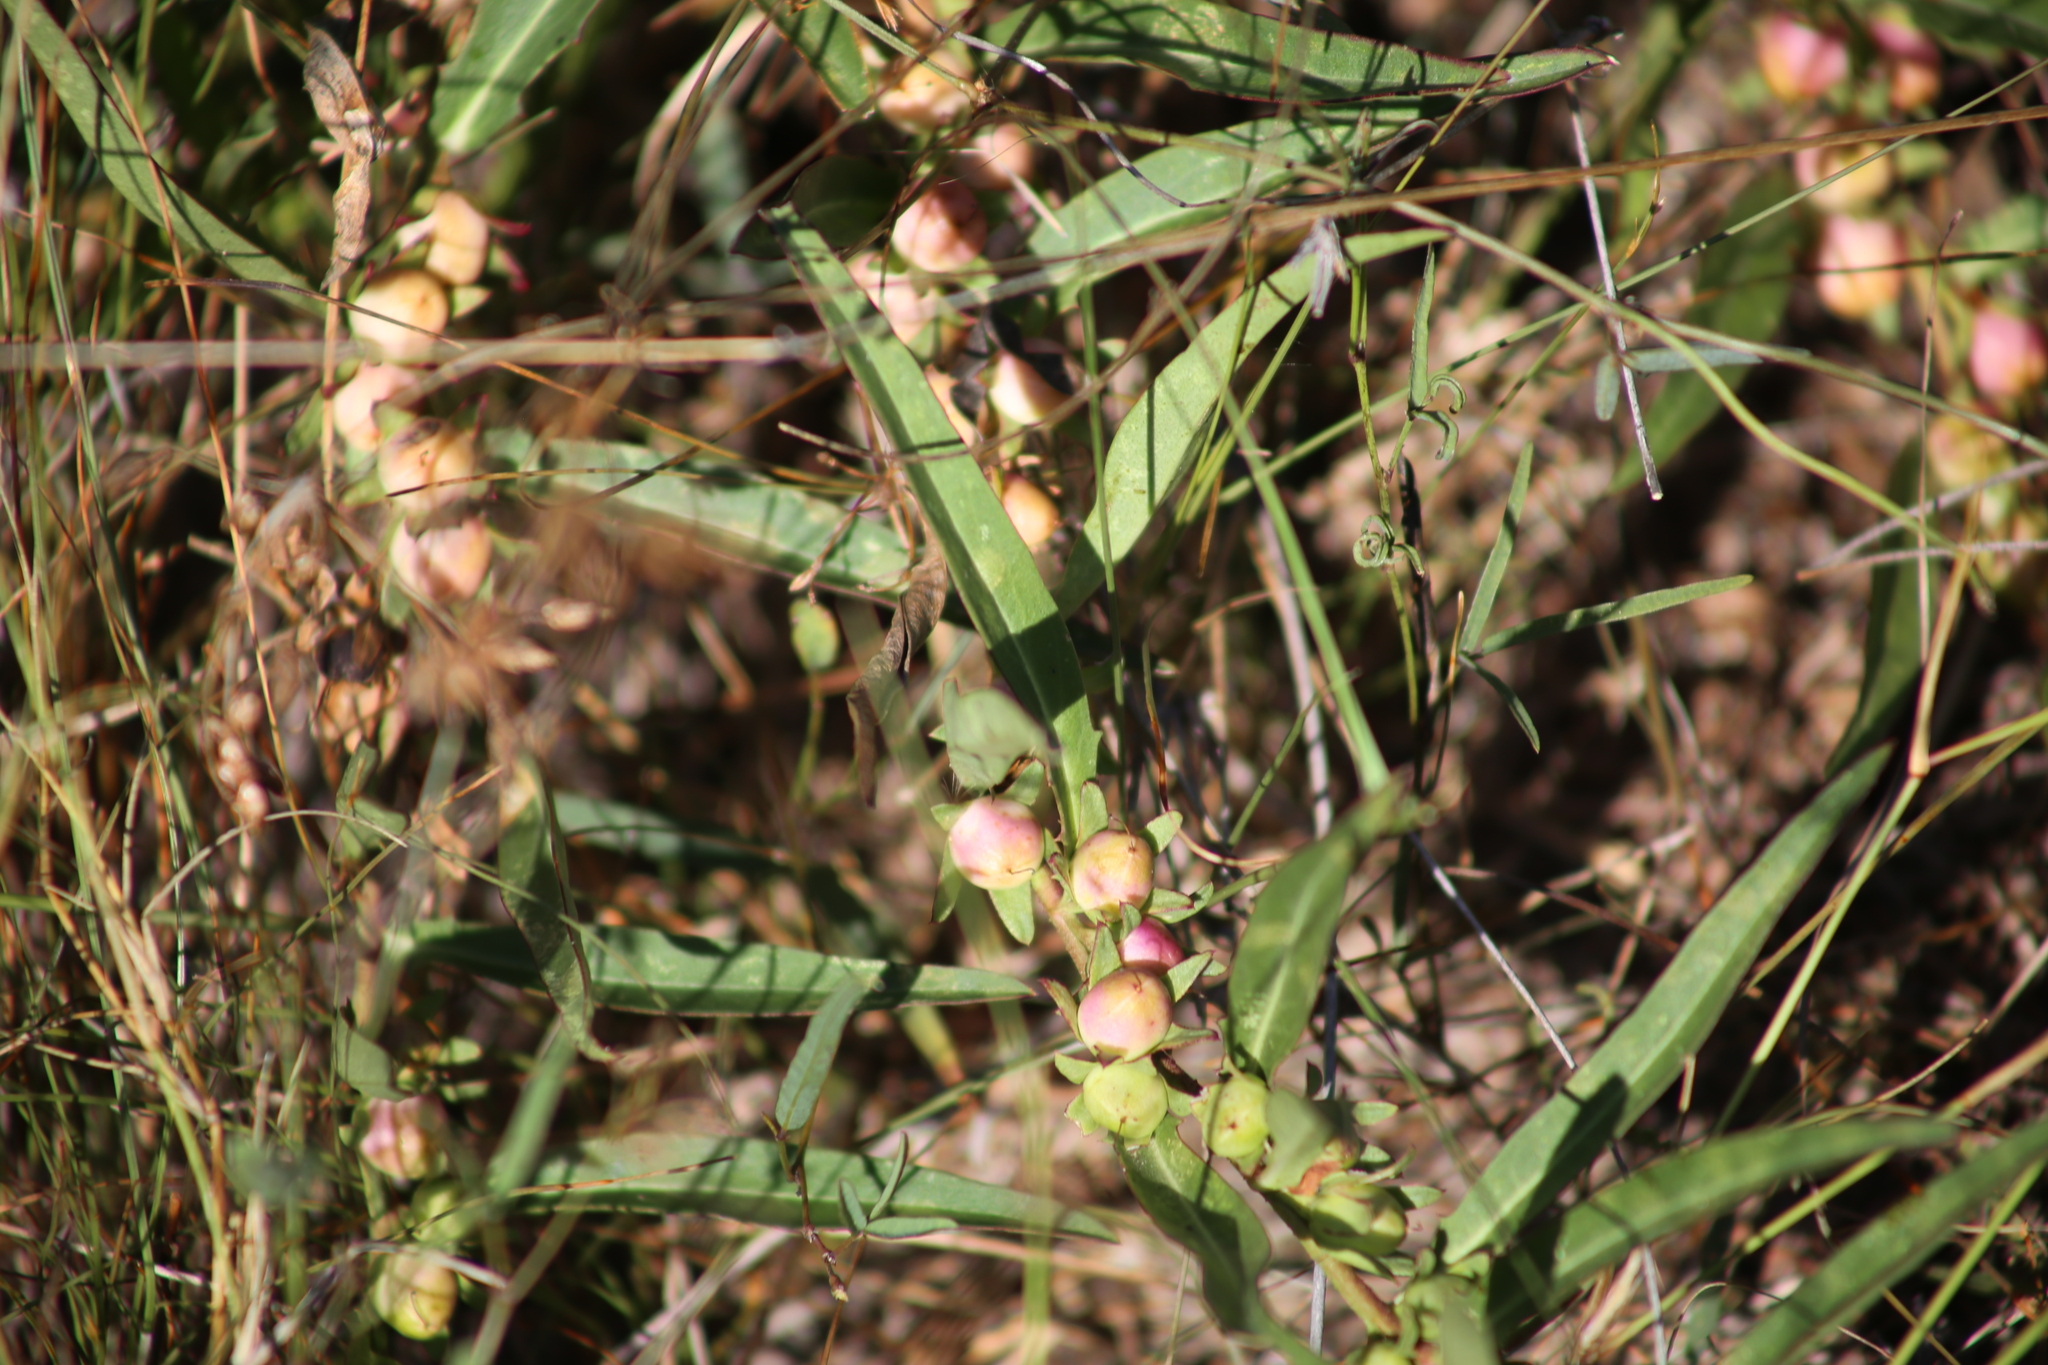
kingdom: Plantae
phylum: Tracheophyta
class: Magnoliopsida
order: Lamiales
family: Scrophulariaceae
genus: Eremophila
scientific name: Eremophila debilis
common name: Winter-apple
